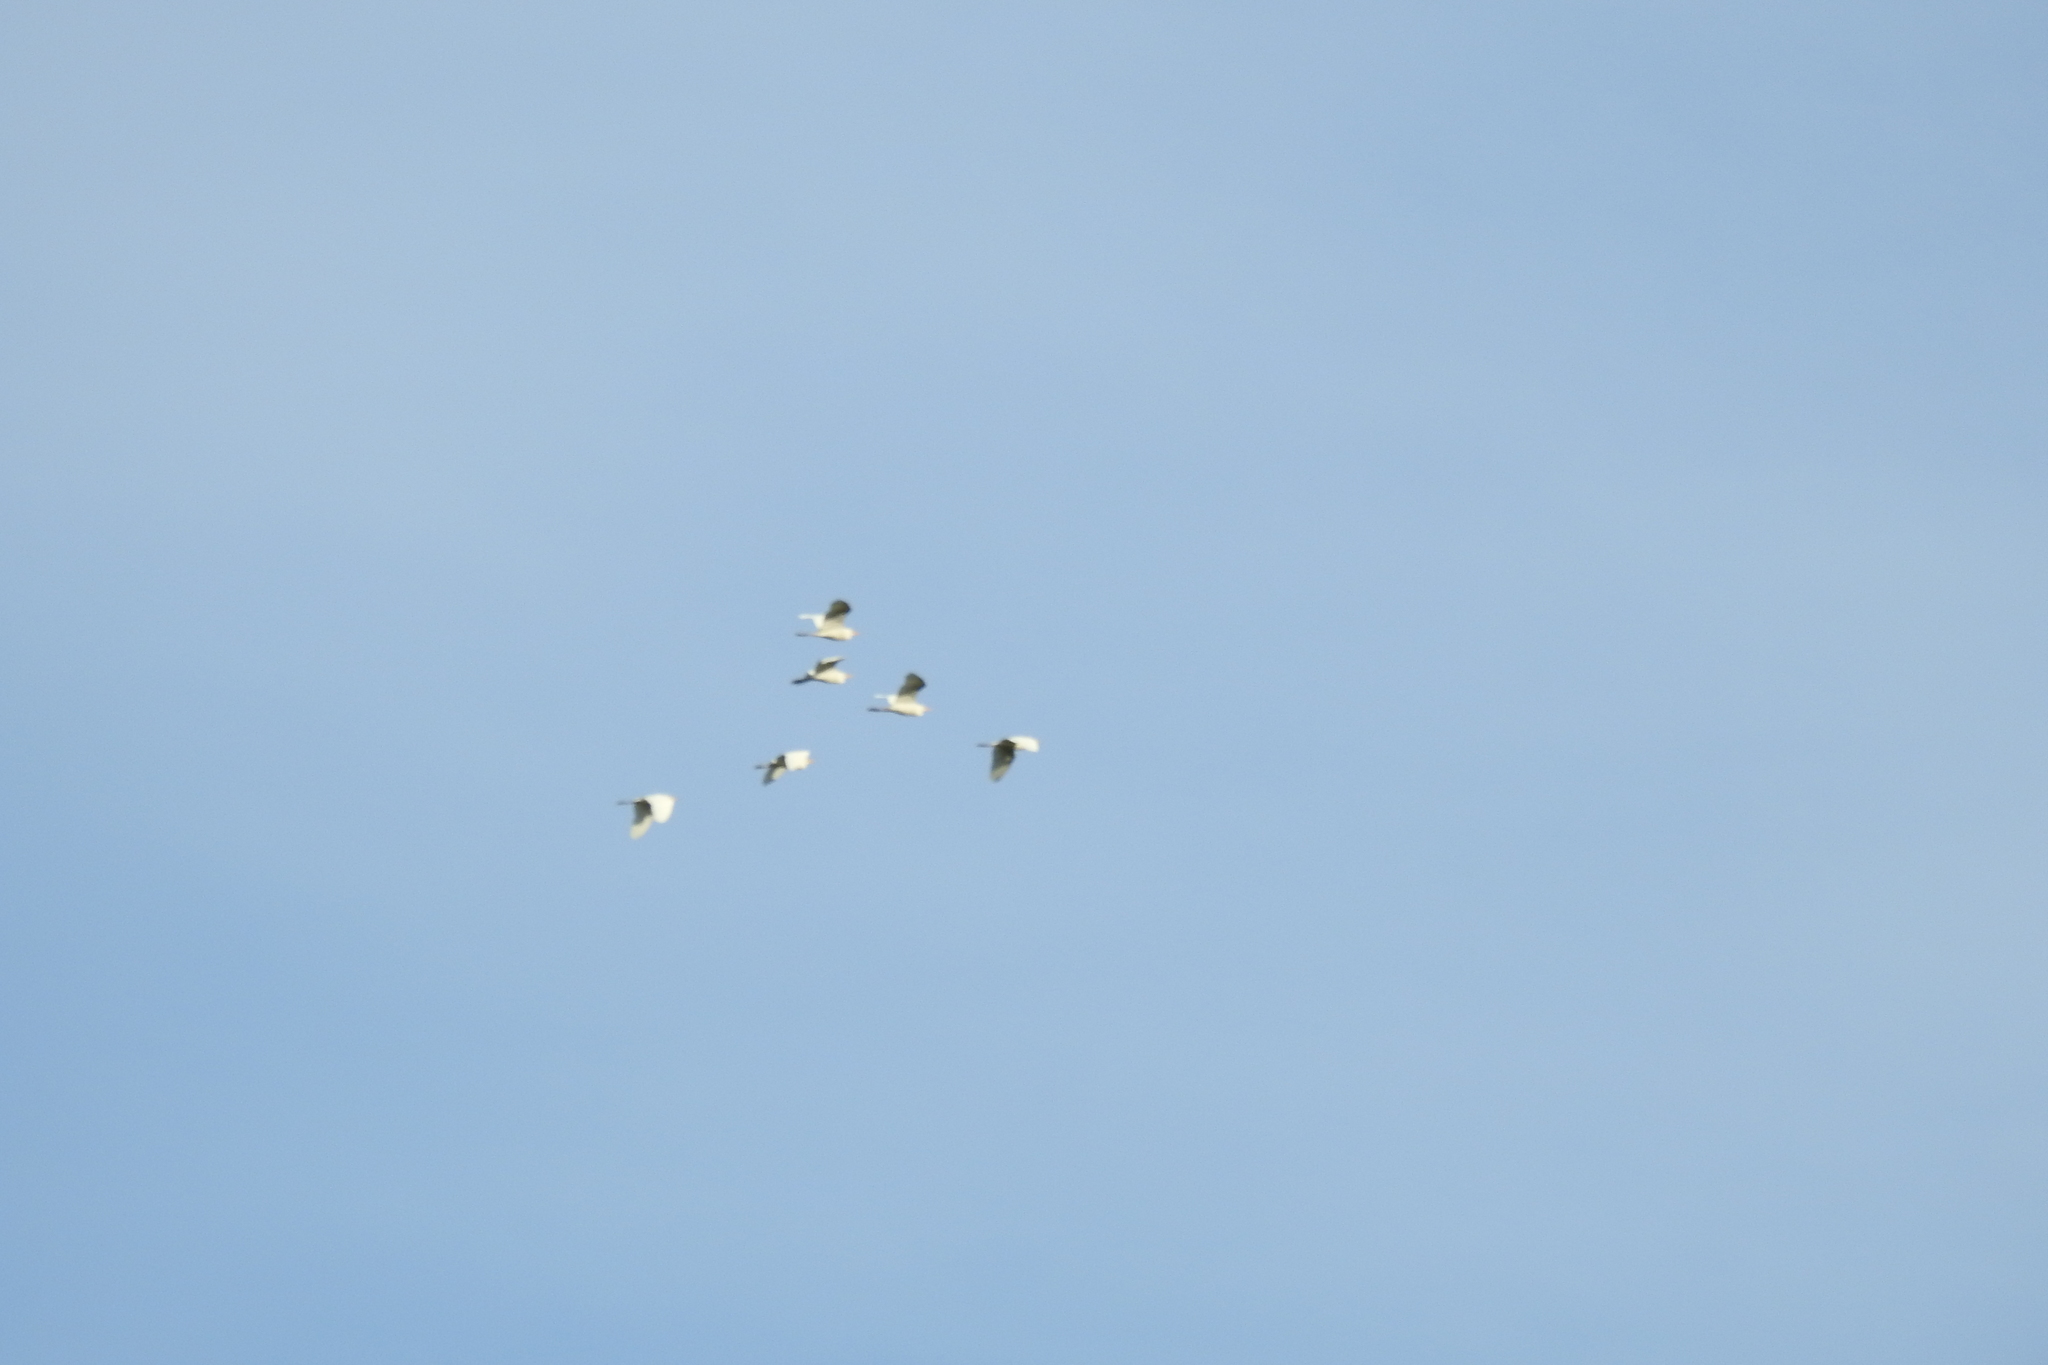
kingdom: Animalia
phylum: Chordata
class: Aves
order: Pelecaniformes
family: Ardeidae
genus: Bubulcus
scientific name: Bubulcus ibis
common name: Cattle egret
